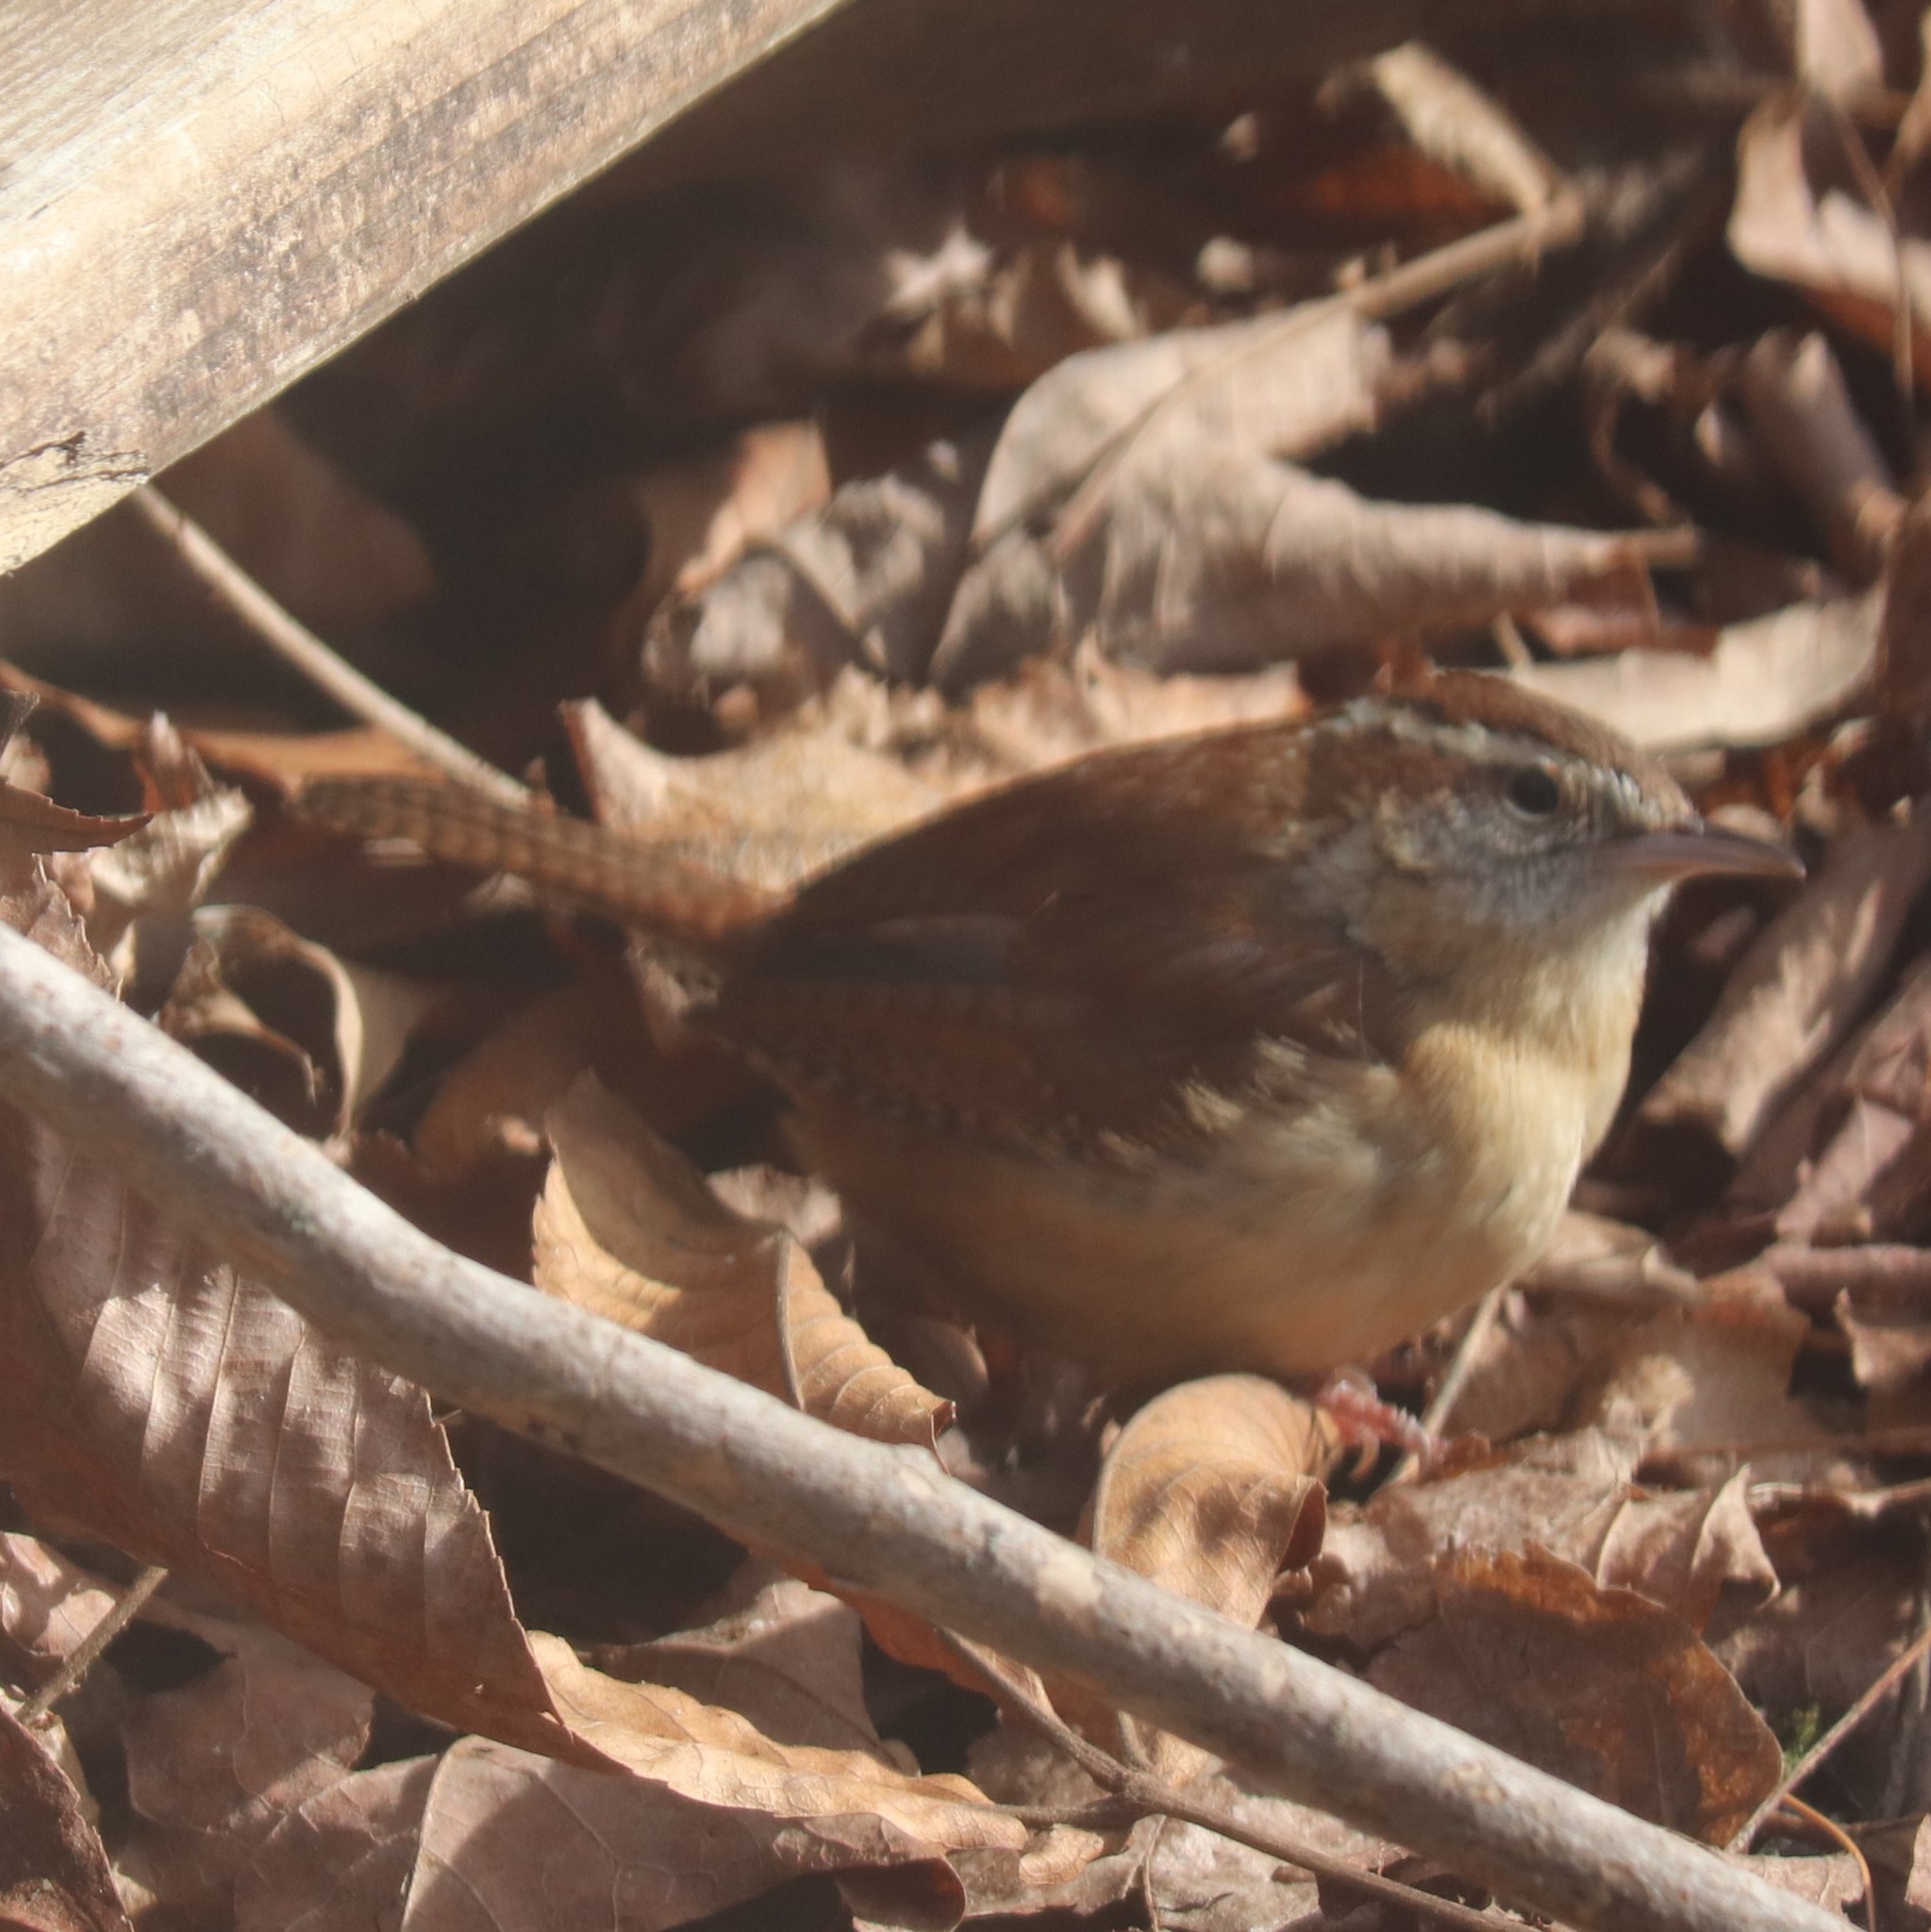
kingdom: Animalia
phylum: Chordata
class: Aves
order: Passeriformes
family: Troglodytidae
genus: Thryothorus
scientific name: Thryothorus ludovicianus
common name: Carolina wren
